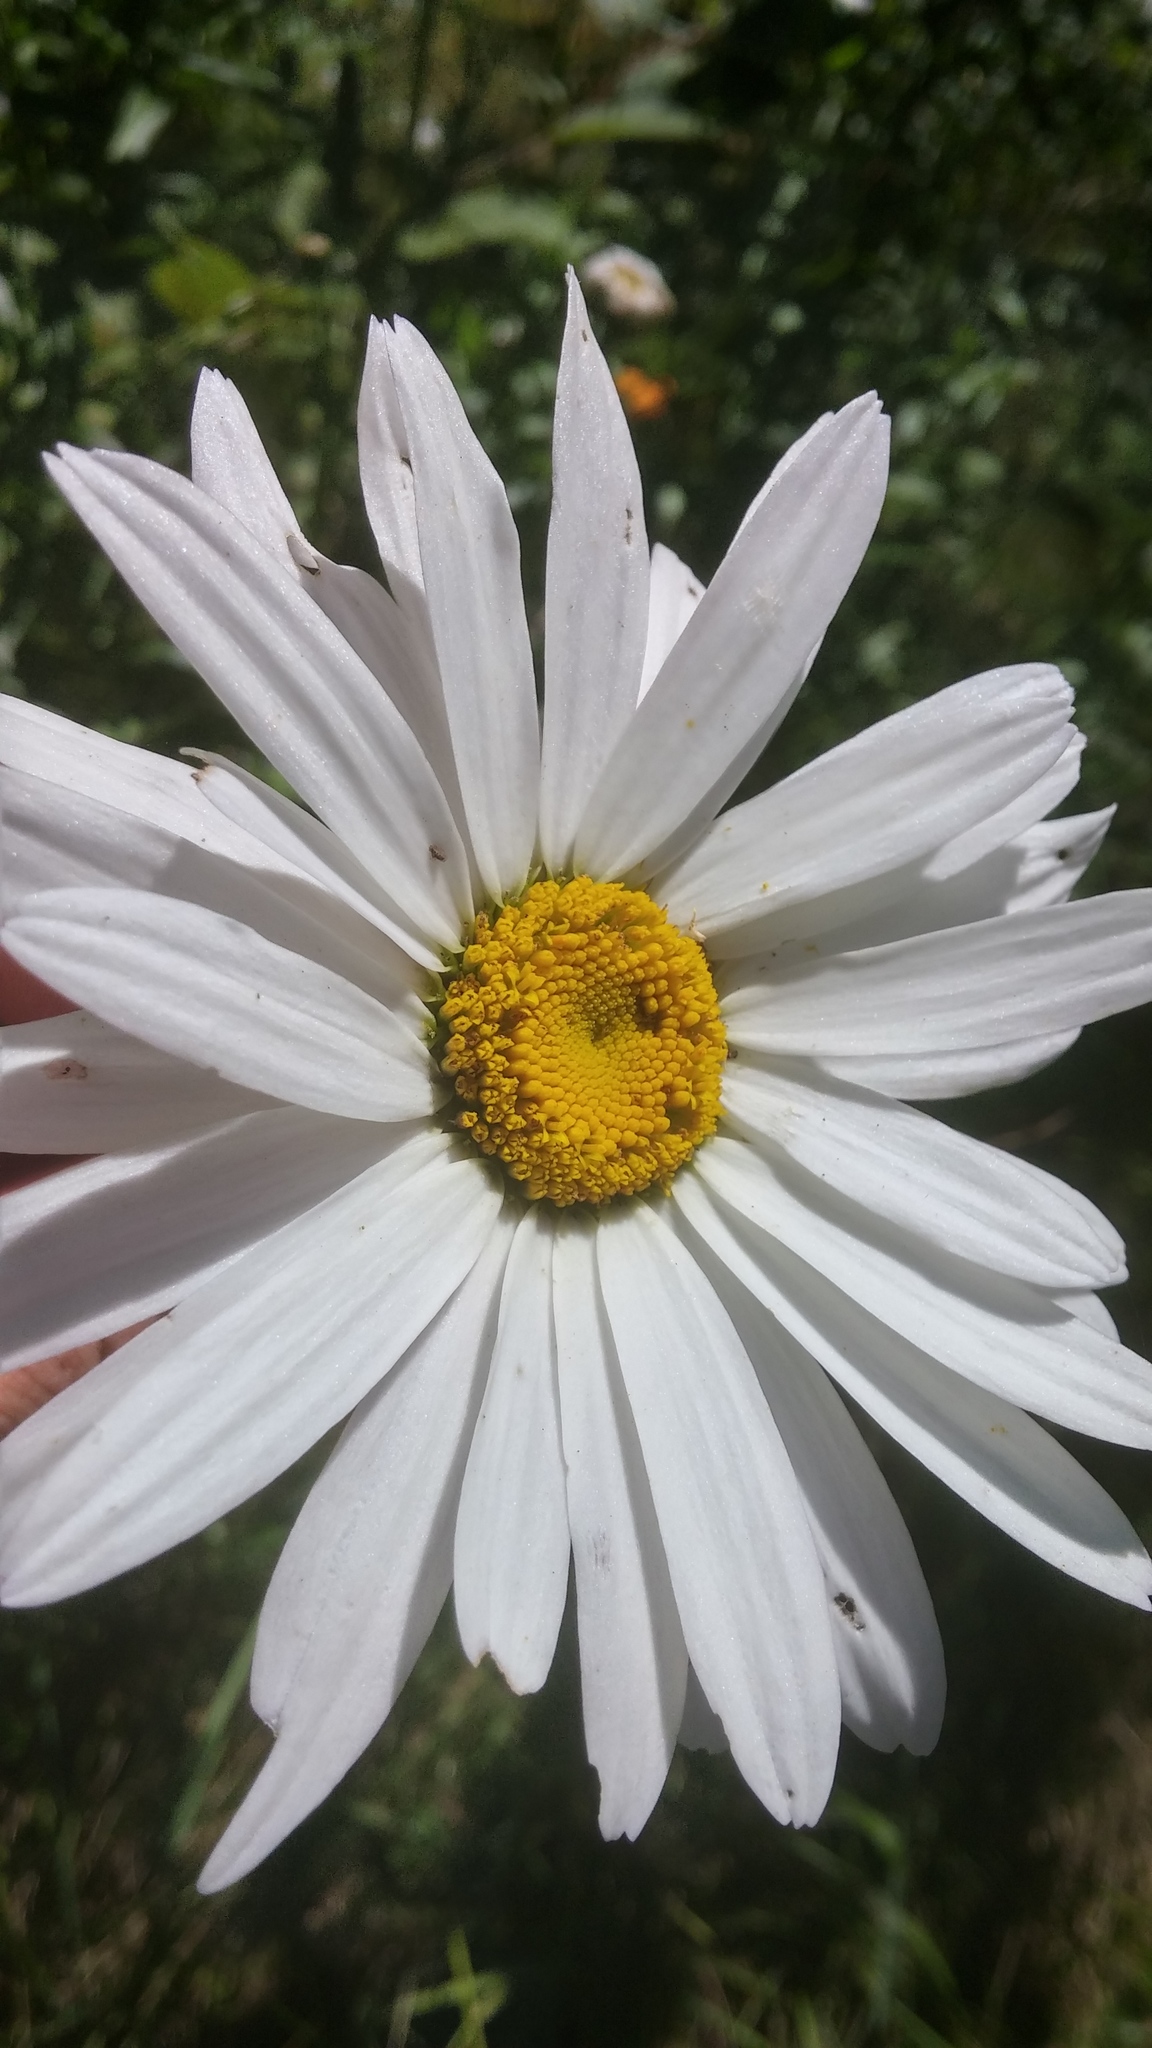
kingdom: Plantae
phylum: Tracheophyta
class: Magnoliopsida
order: Asterales
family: Asteraceae
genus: Leucanthemum
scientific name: Leucanthemum superbum
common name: Shasta daisy
